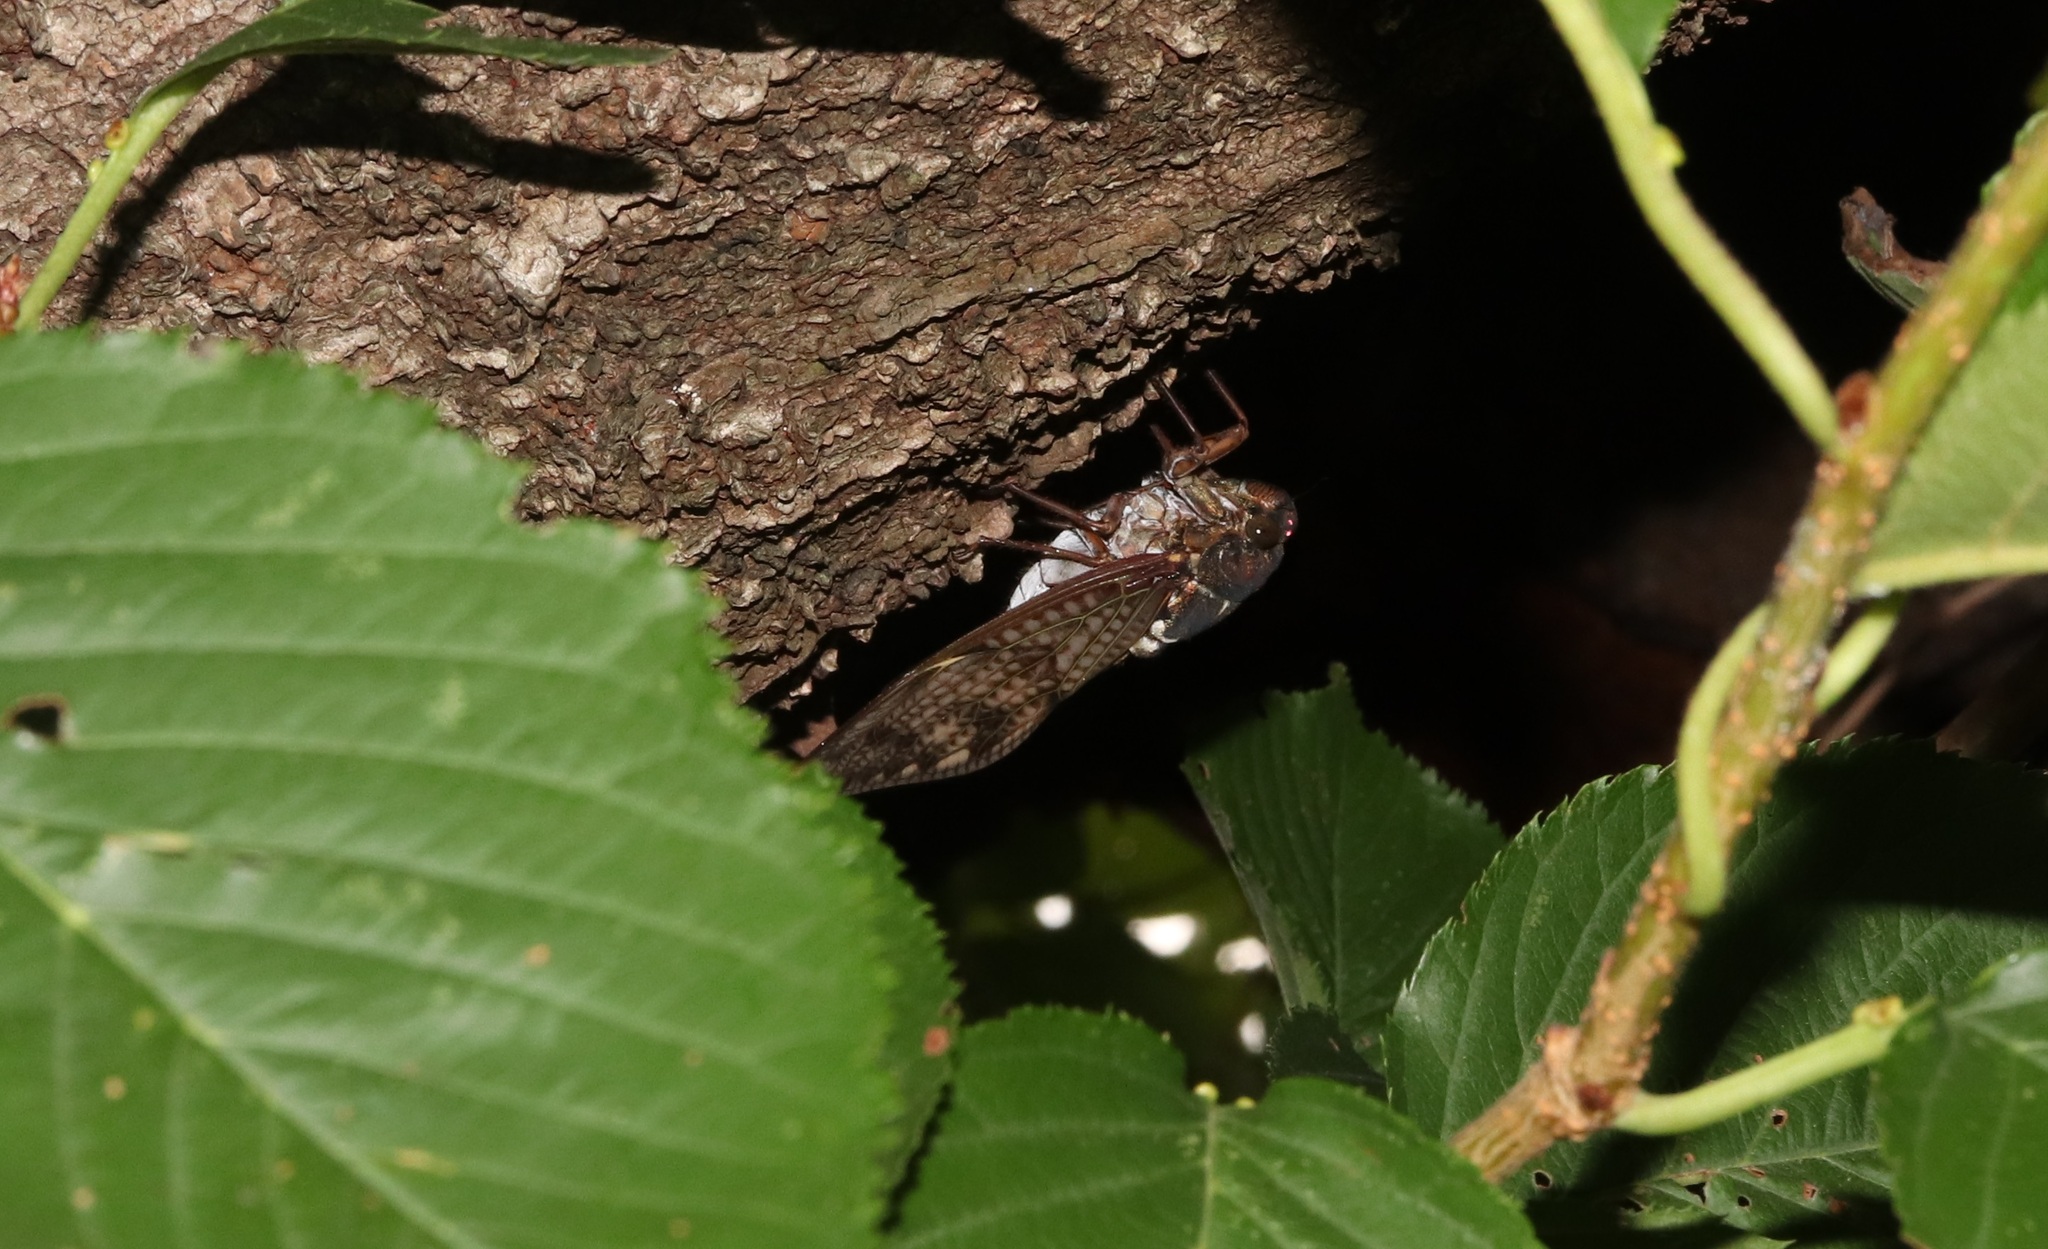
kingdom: Animalia
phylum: Arthropoda
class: Insecta
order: Hemiptera
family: Cicadidae
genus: Graptopsaltria
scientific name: Graptopsaltria nigrofuscata
